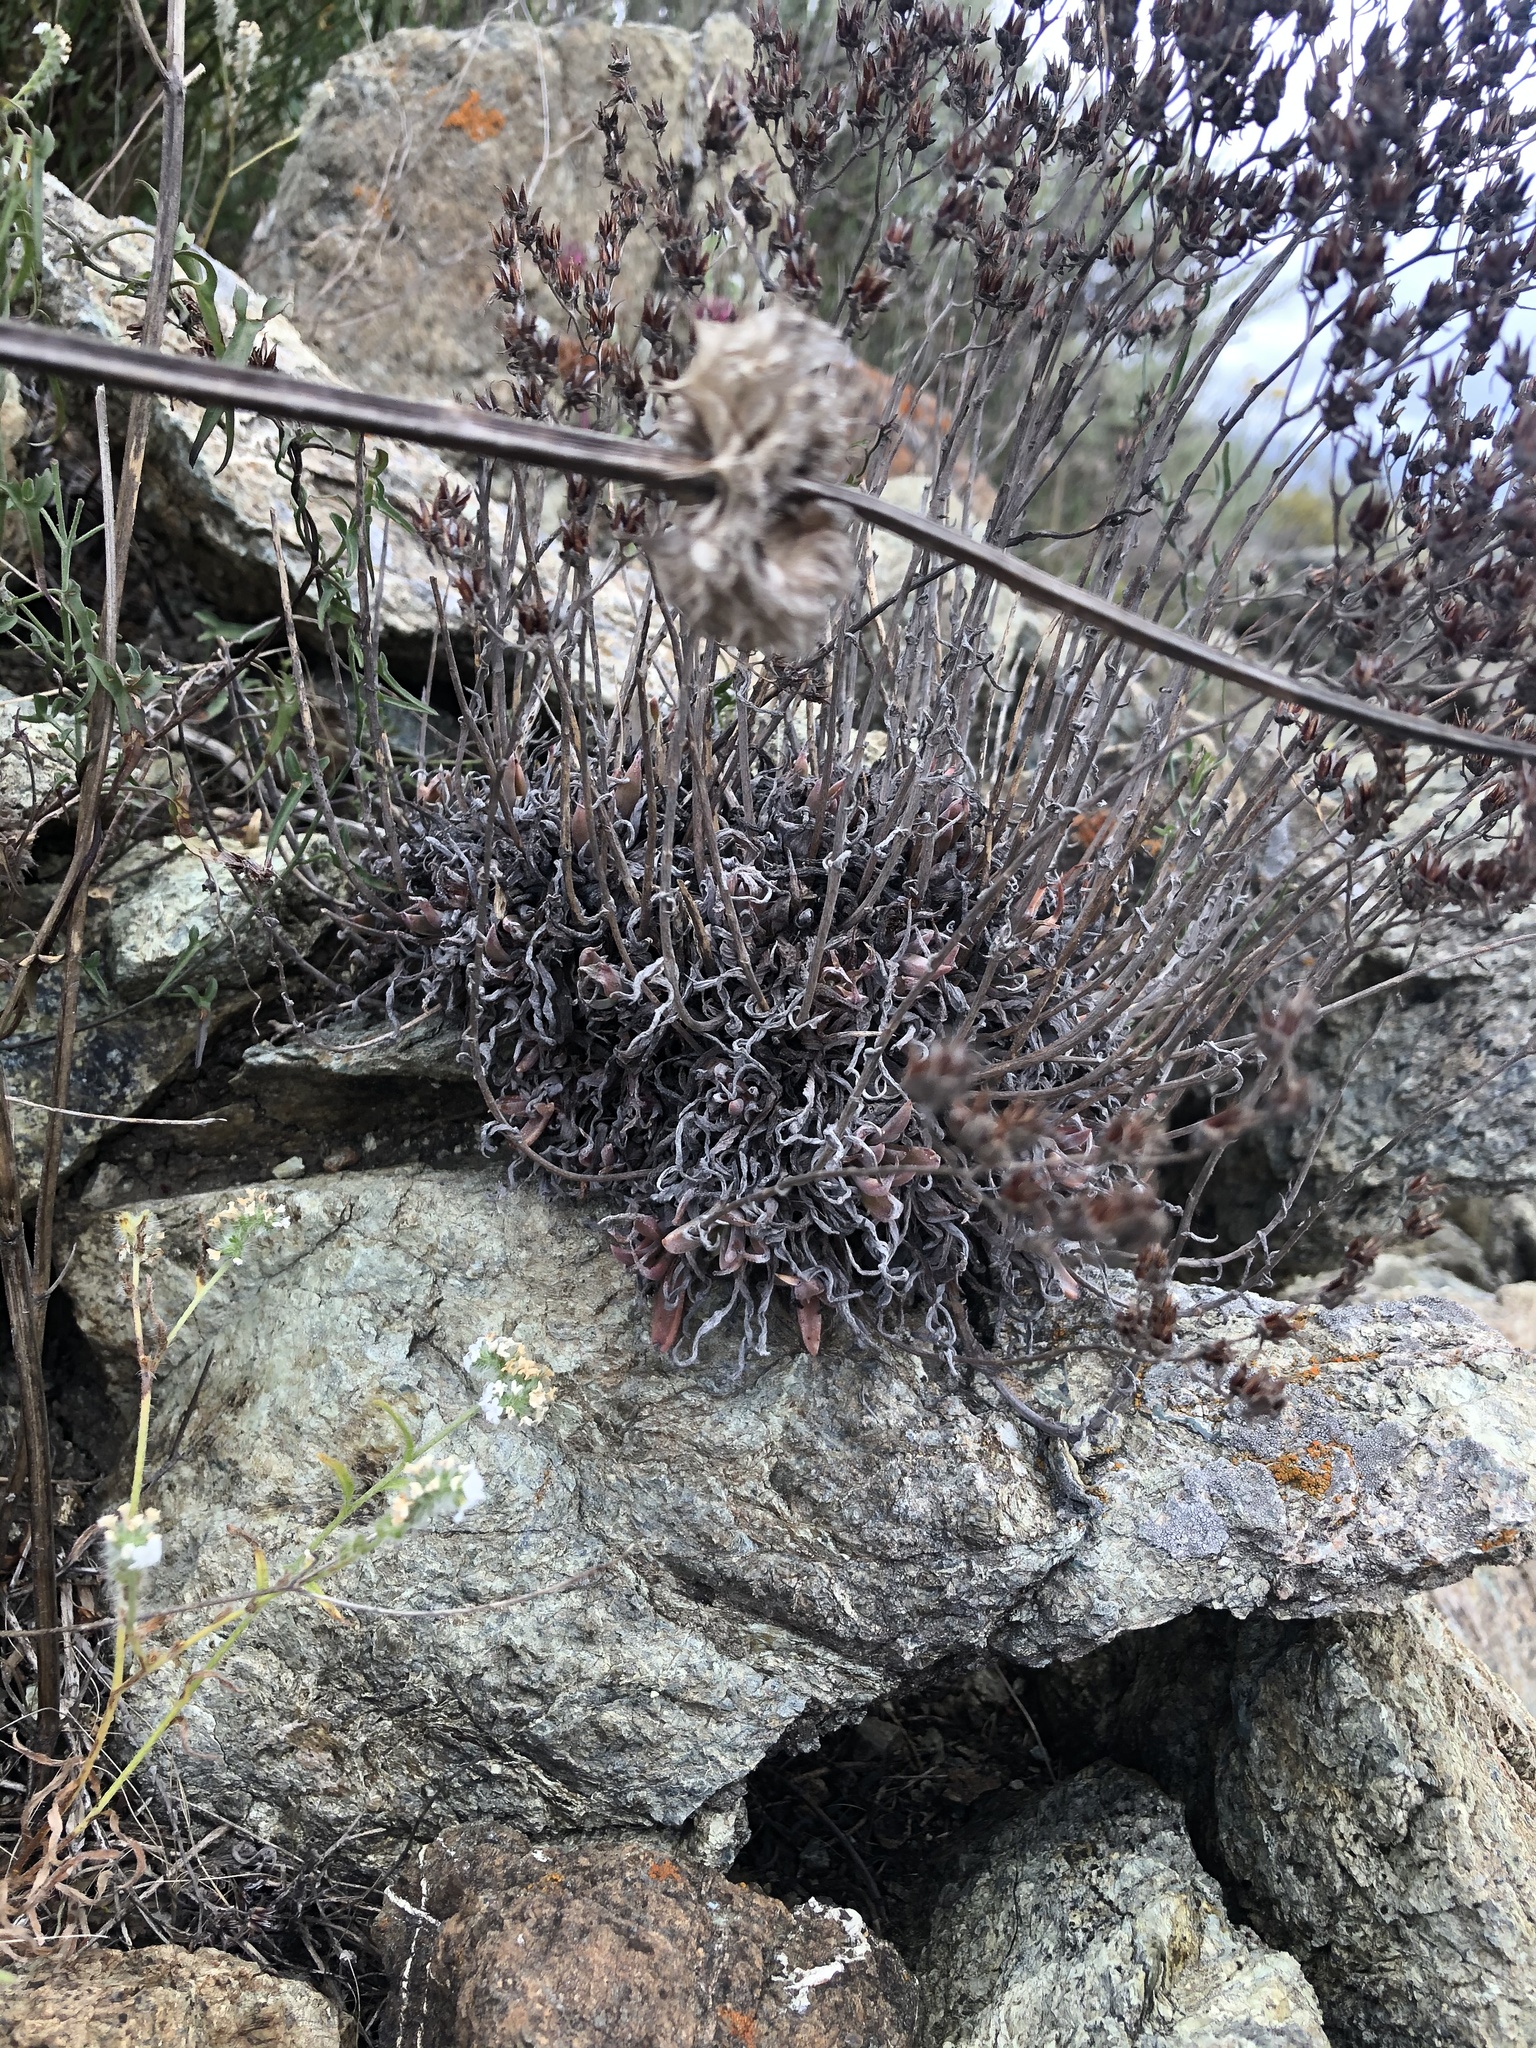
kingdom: Plantae
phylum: Tracheophyta
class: Magnoliopsida
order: Saxifragales
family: Crassulaceae
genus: Dudleya
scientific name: Dudleya abramsii
